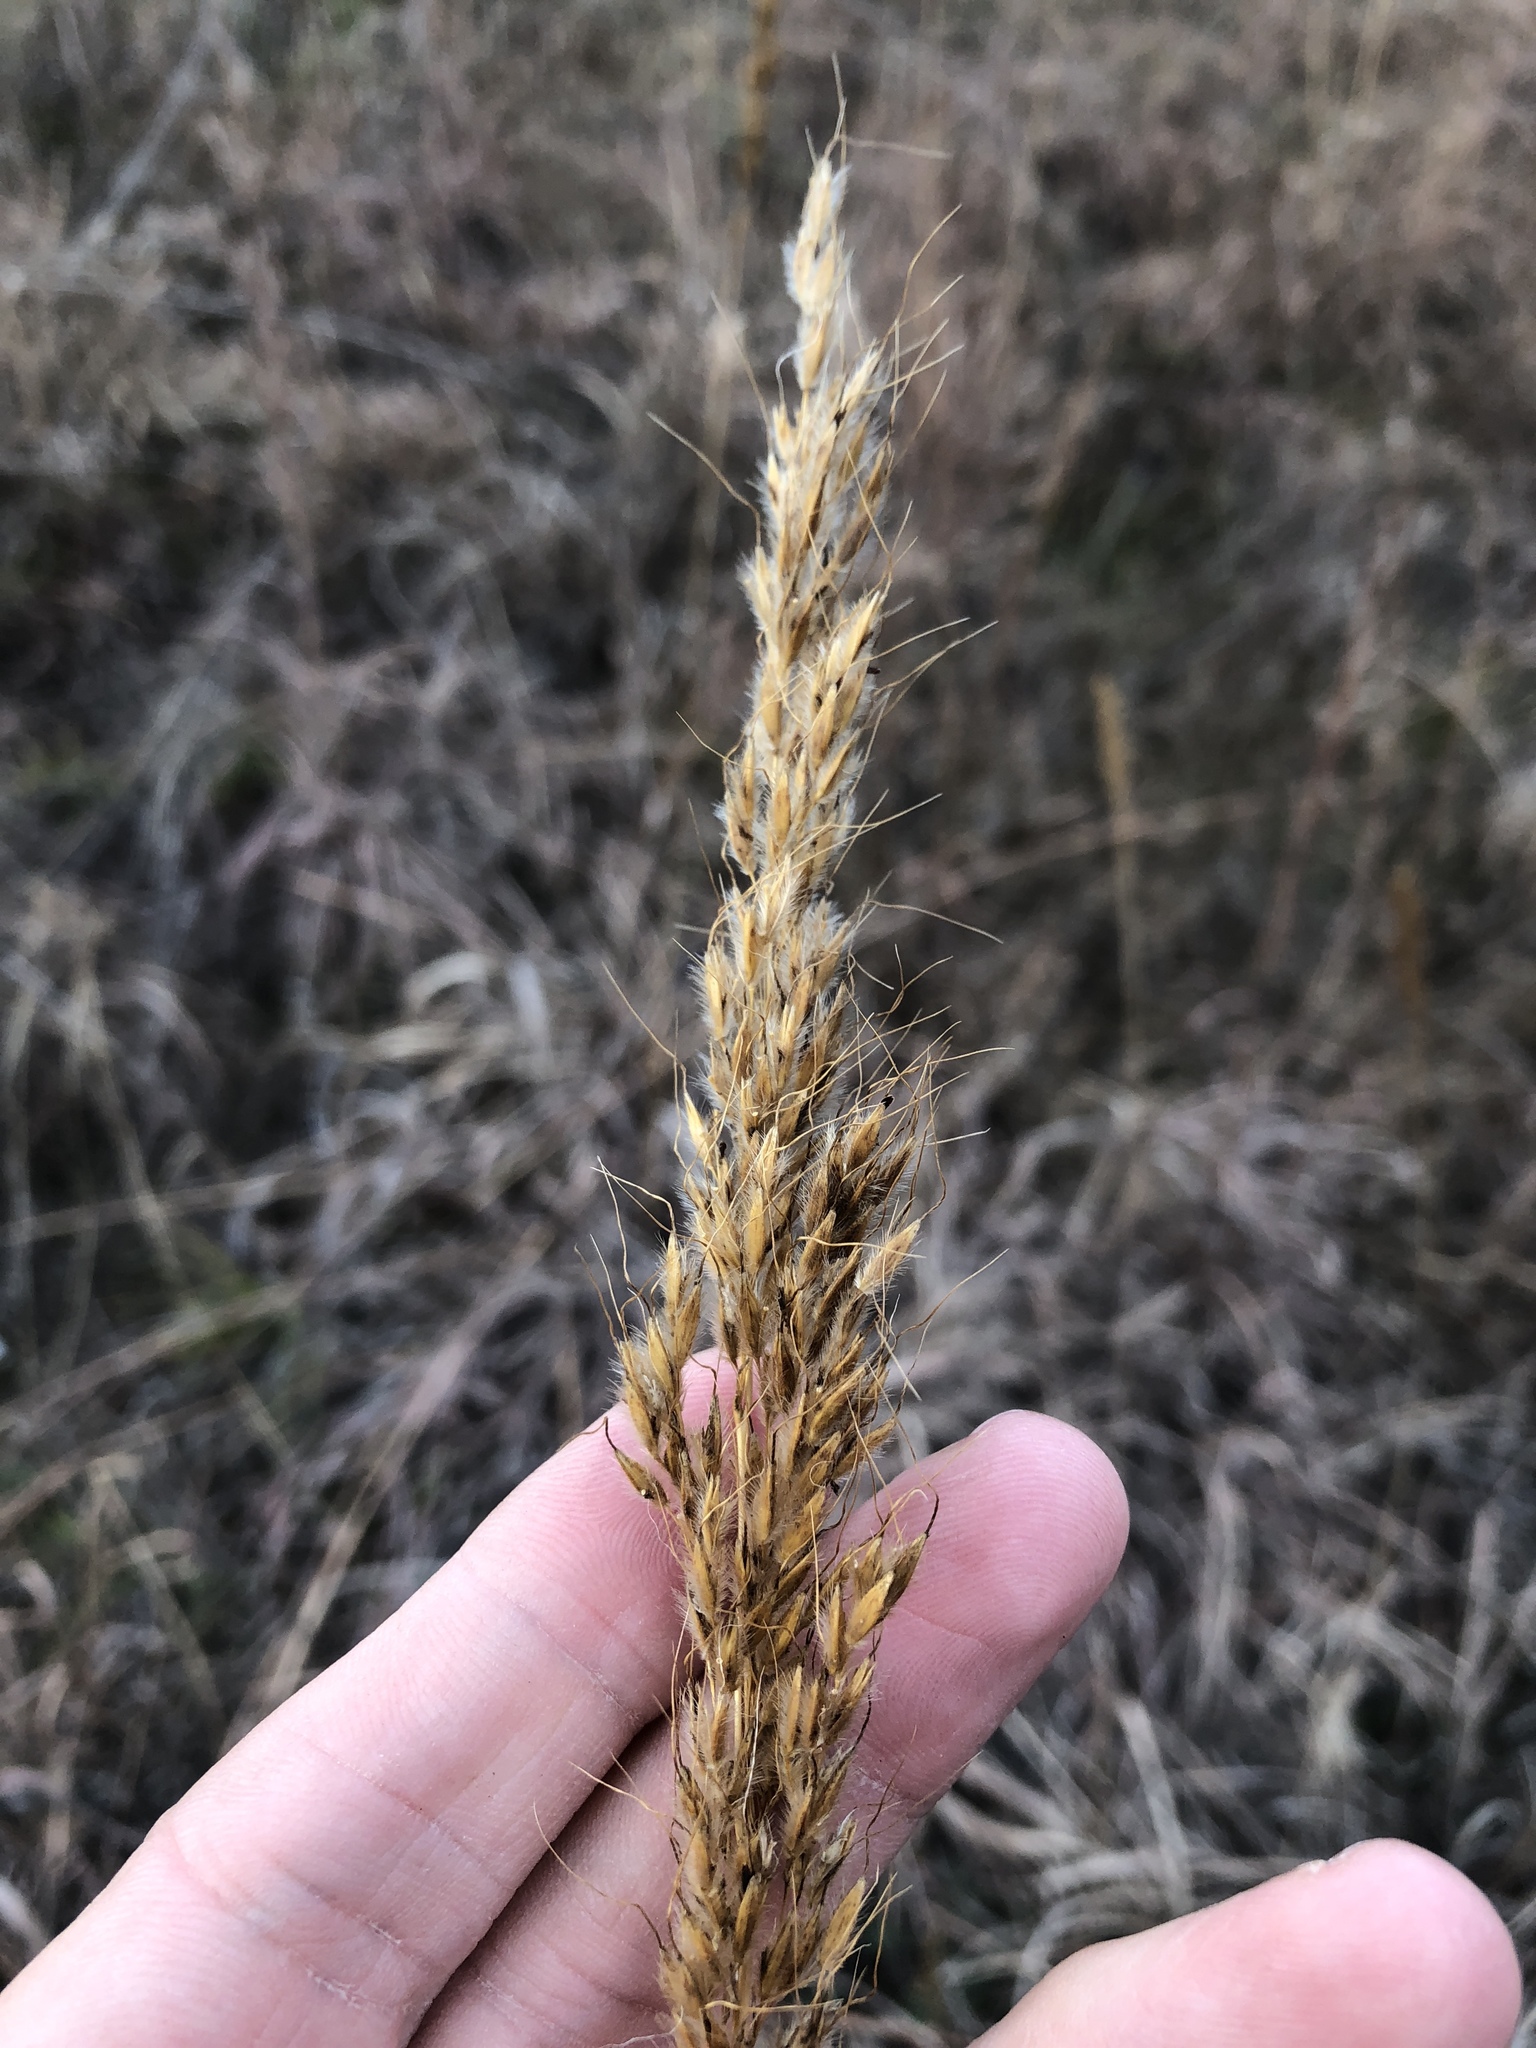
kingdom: Plantae
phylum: Tracheophyta
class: Liliopsida
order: Poales
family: Poaceae
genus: Sorghastrum
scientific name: Sorghastrum nutans
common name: Indian grass
